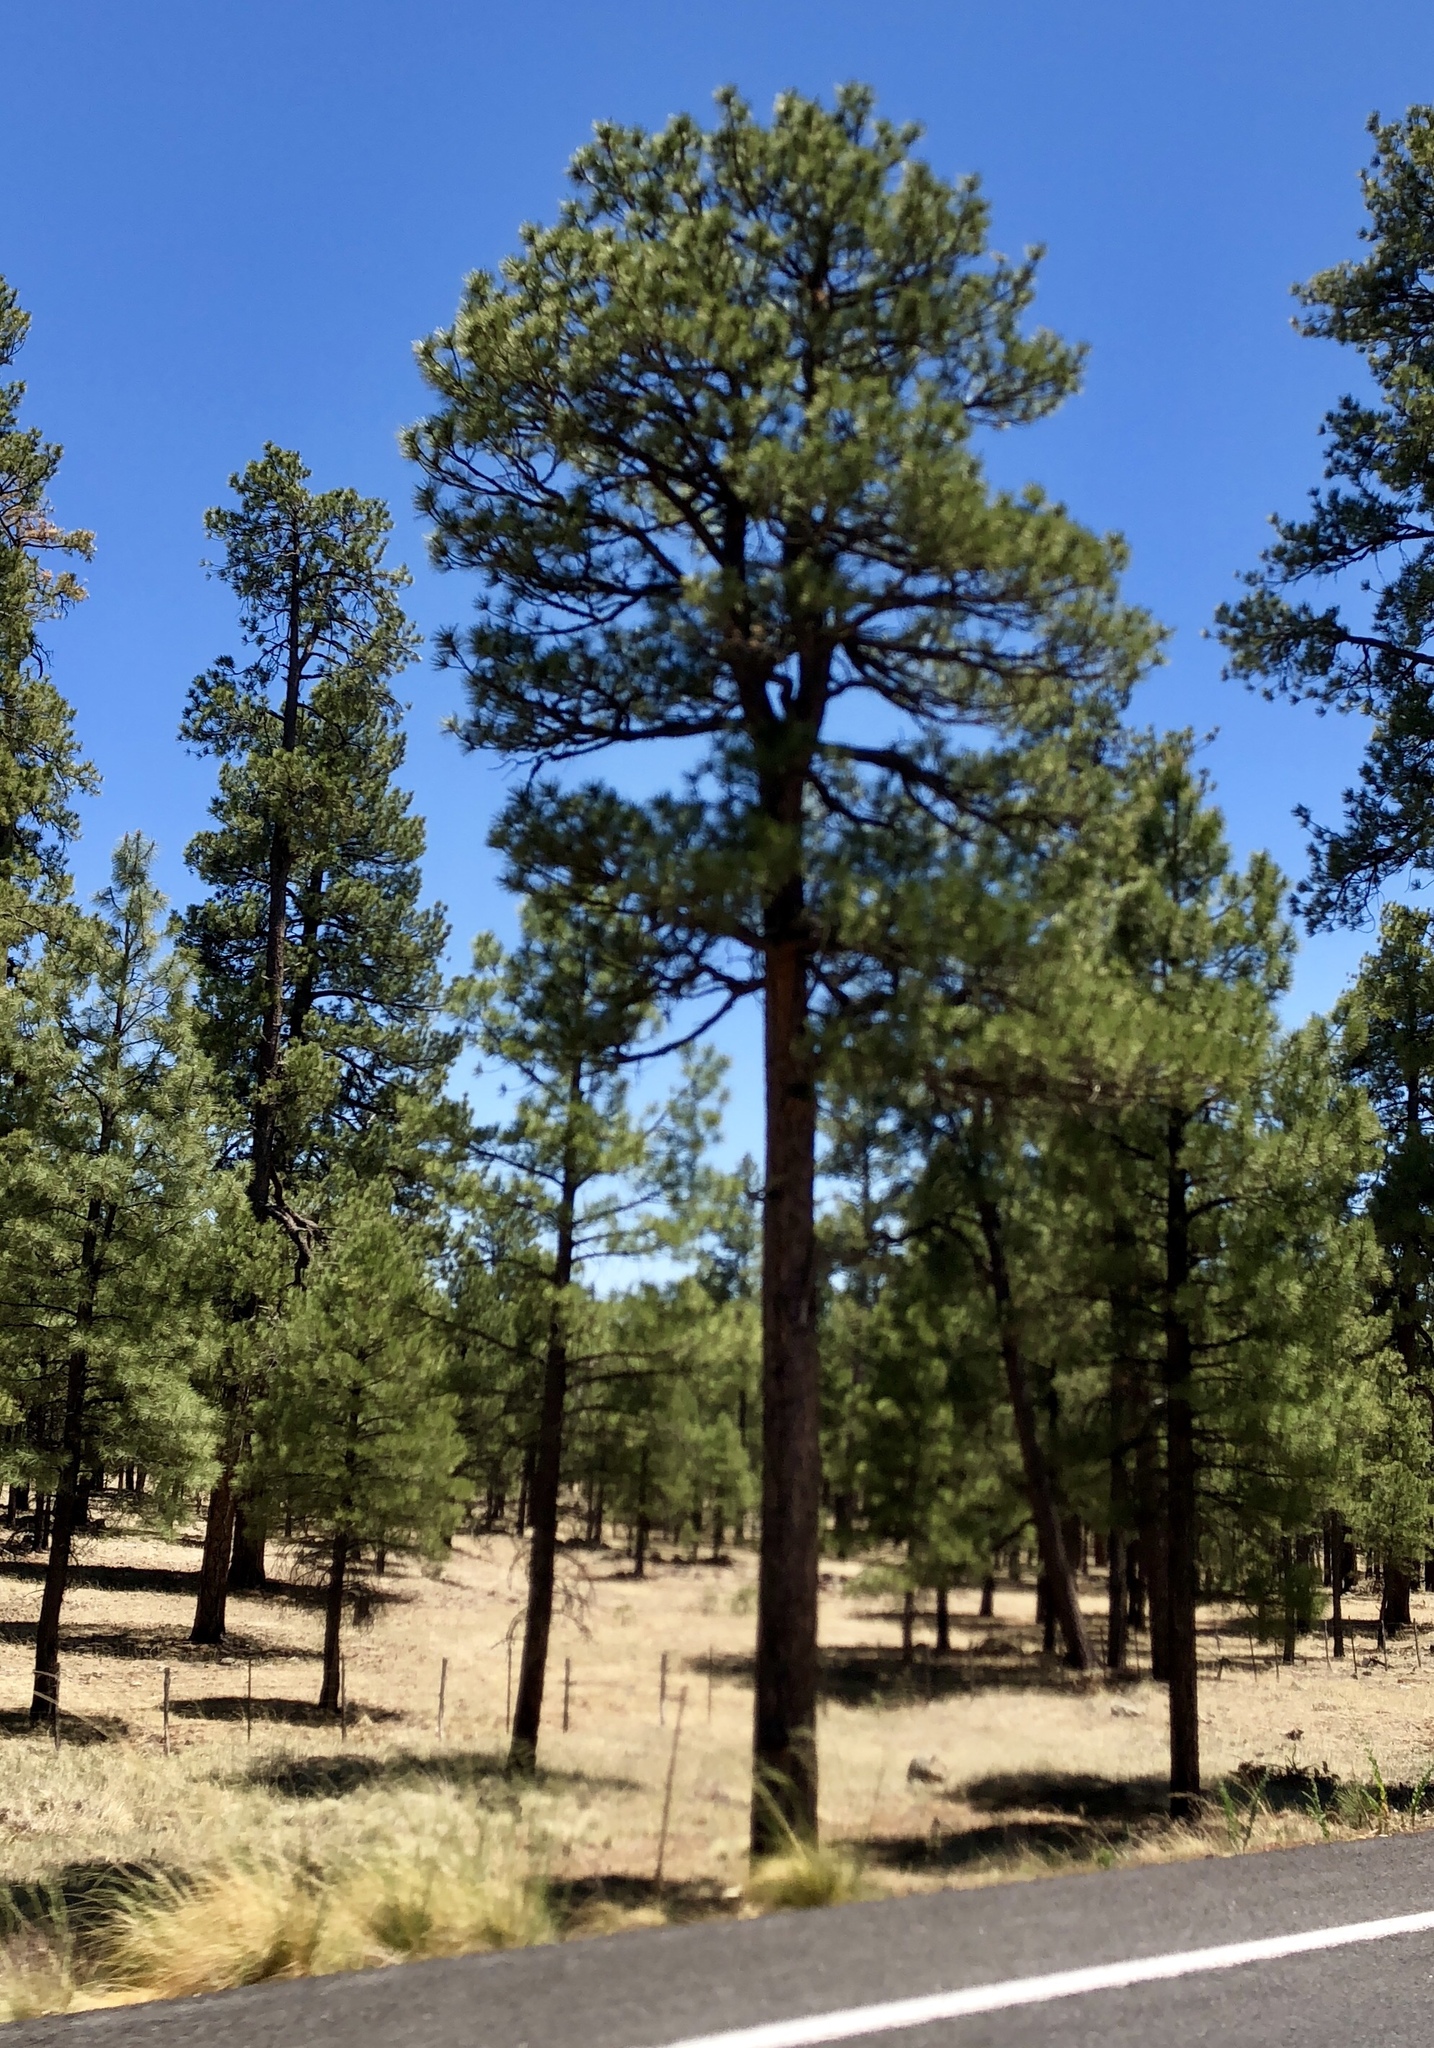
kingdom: Plantae
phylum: Tracheophyta
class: Pinopsida
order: Pinales
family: Pinaceae
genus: Pinus
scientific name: Pinus ponderosa
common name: Western yellow-pine
